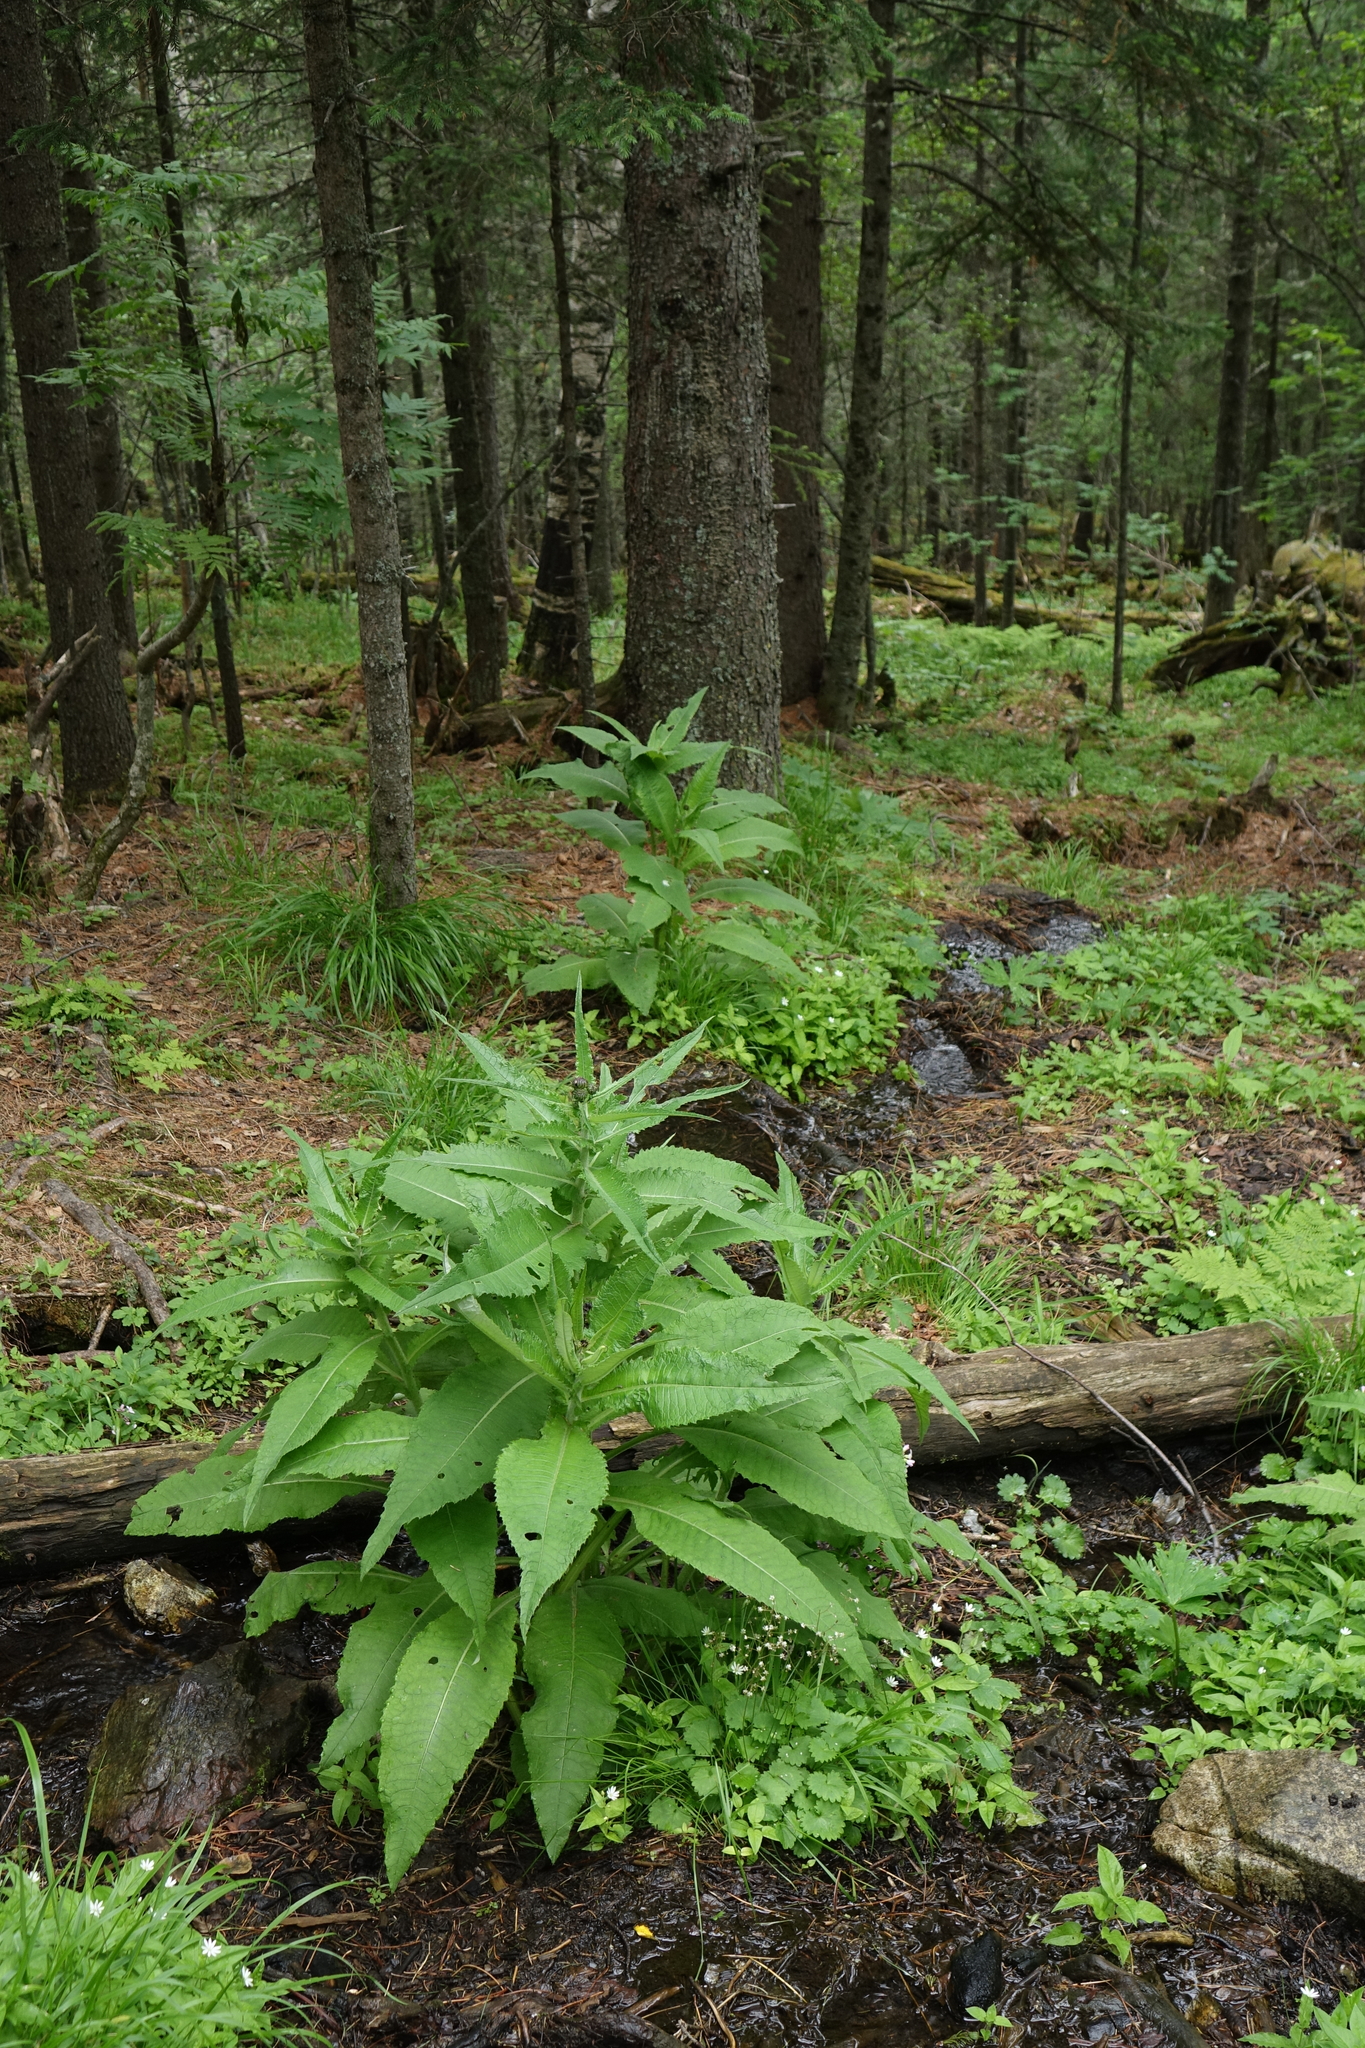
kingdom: Plantae
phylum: Tracheophyta
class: Pinopsida
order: Pinales
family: Pinaceae
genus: Picea
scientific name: Picea obovata
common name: Siberian spruce
